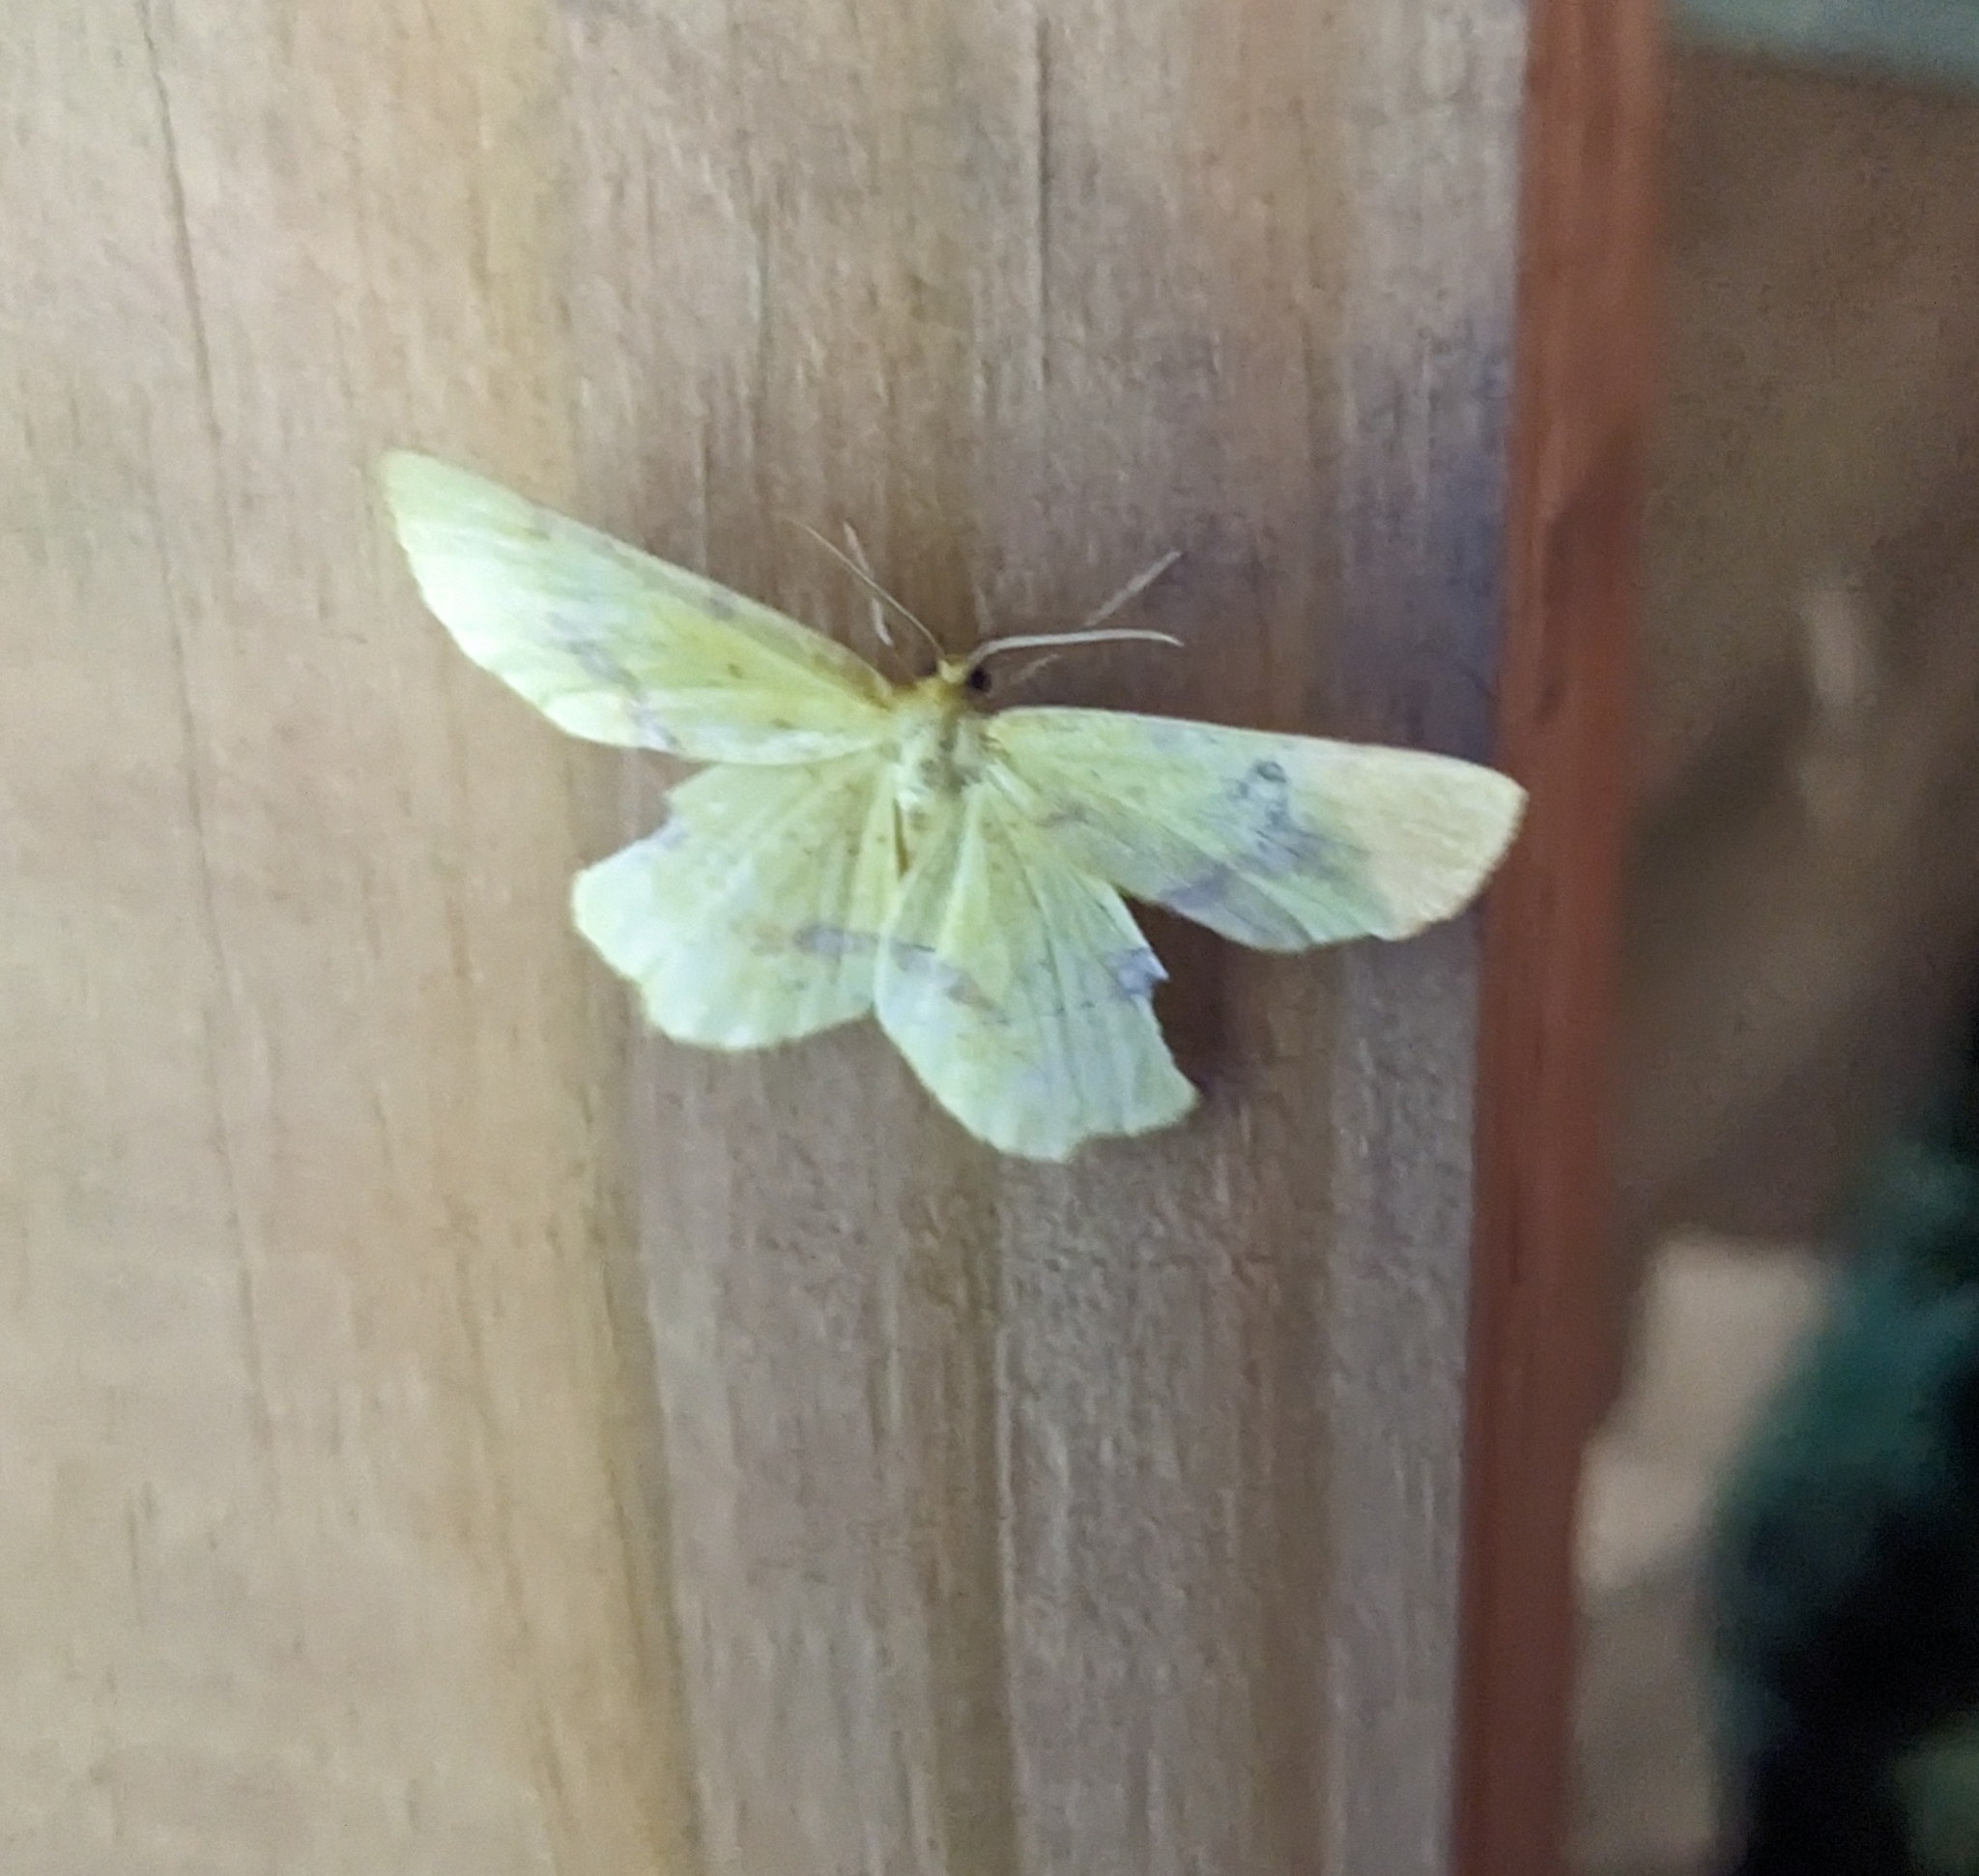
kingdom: Animalia
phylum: Arthropoda
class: Insecta
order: Lepidoptera
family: Geometridae
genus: Xanthotype
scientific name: Xanthotype
